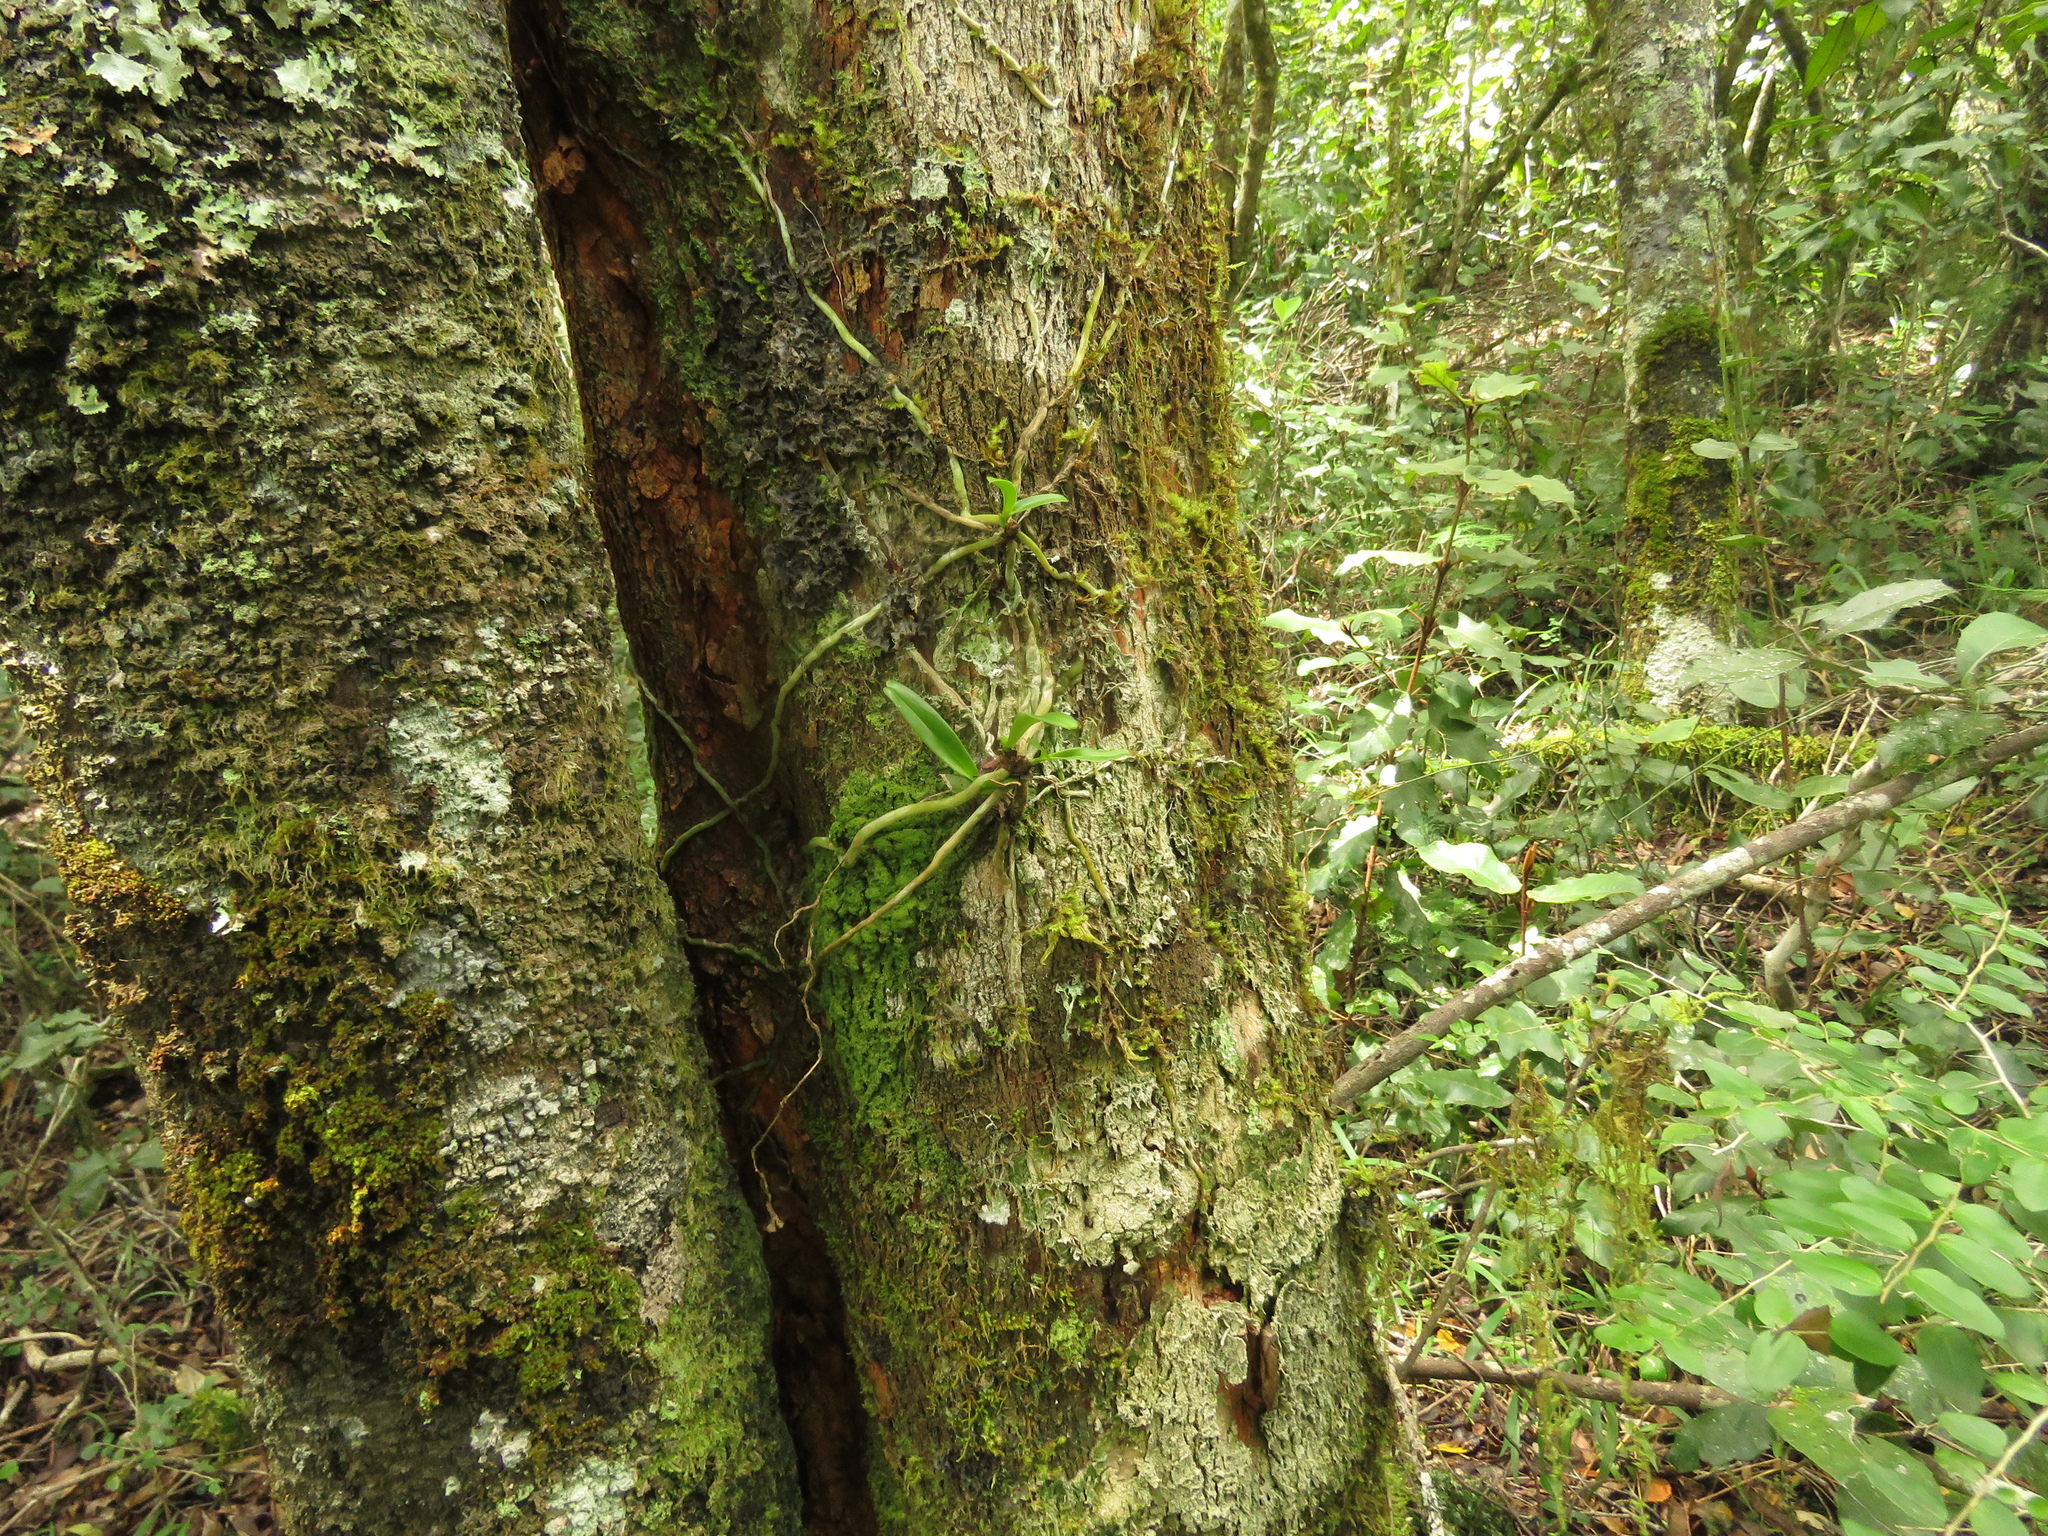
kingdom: Plantae
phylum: Tracheophyta
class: Liliopsida
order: Asparagales
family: Orchidaceae
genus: Mystacidium
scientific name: Mystacidium capense
